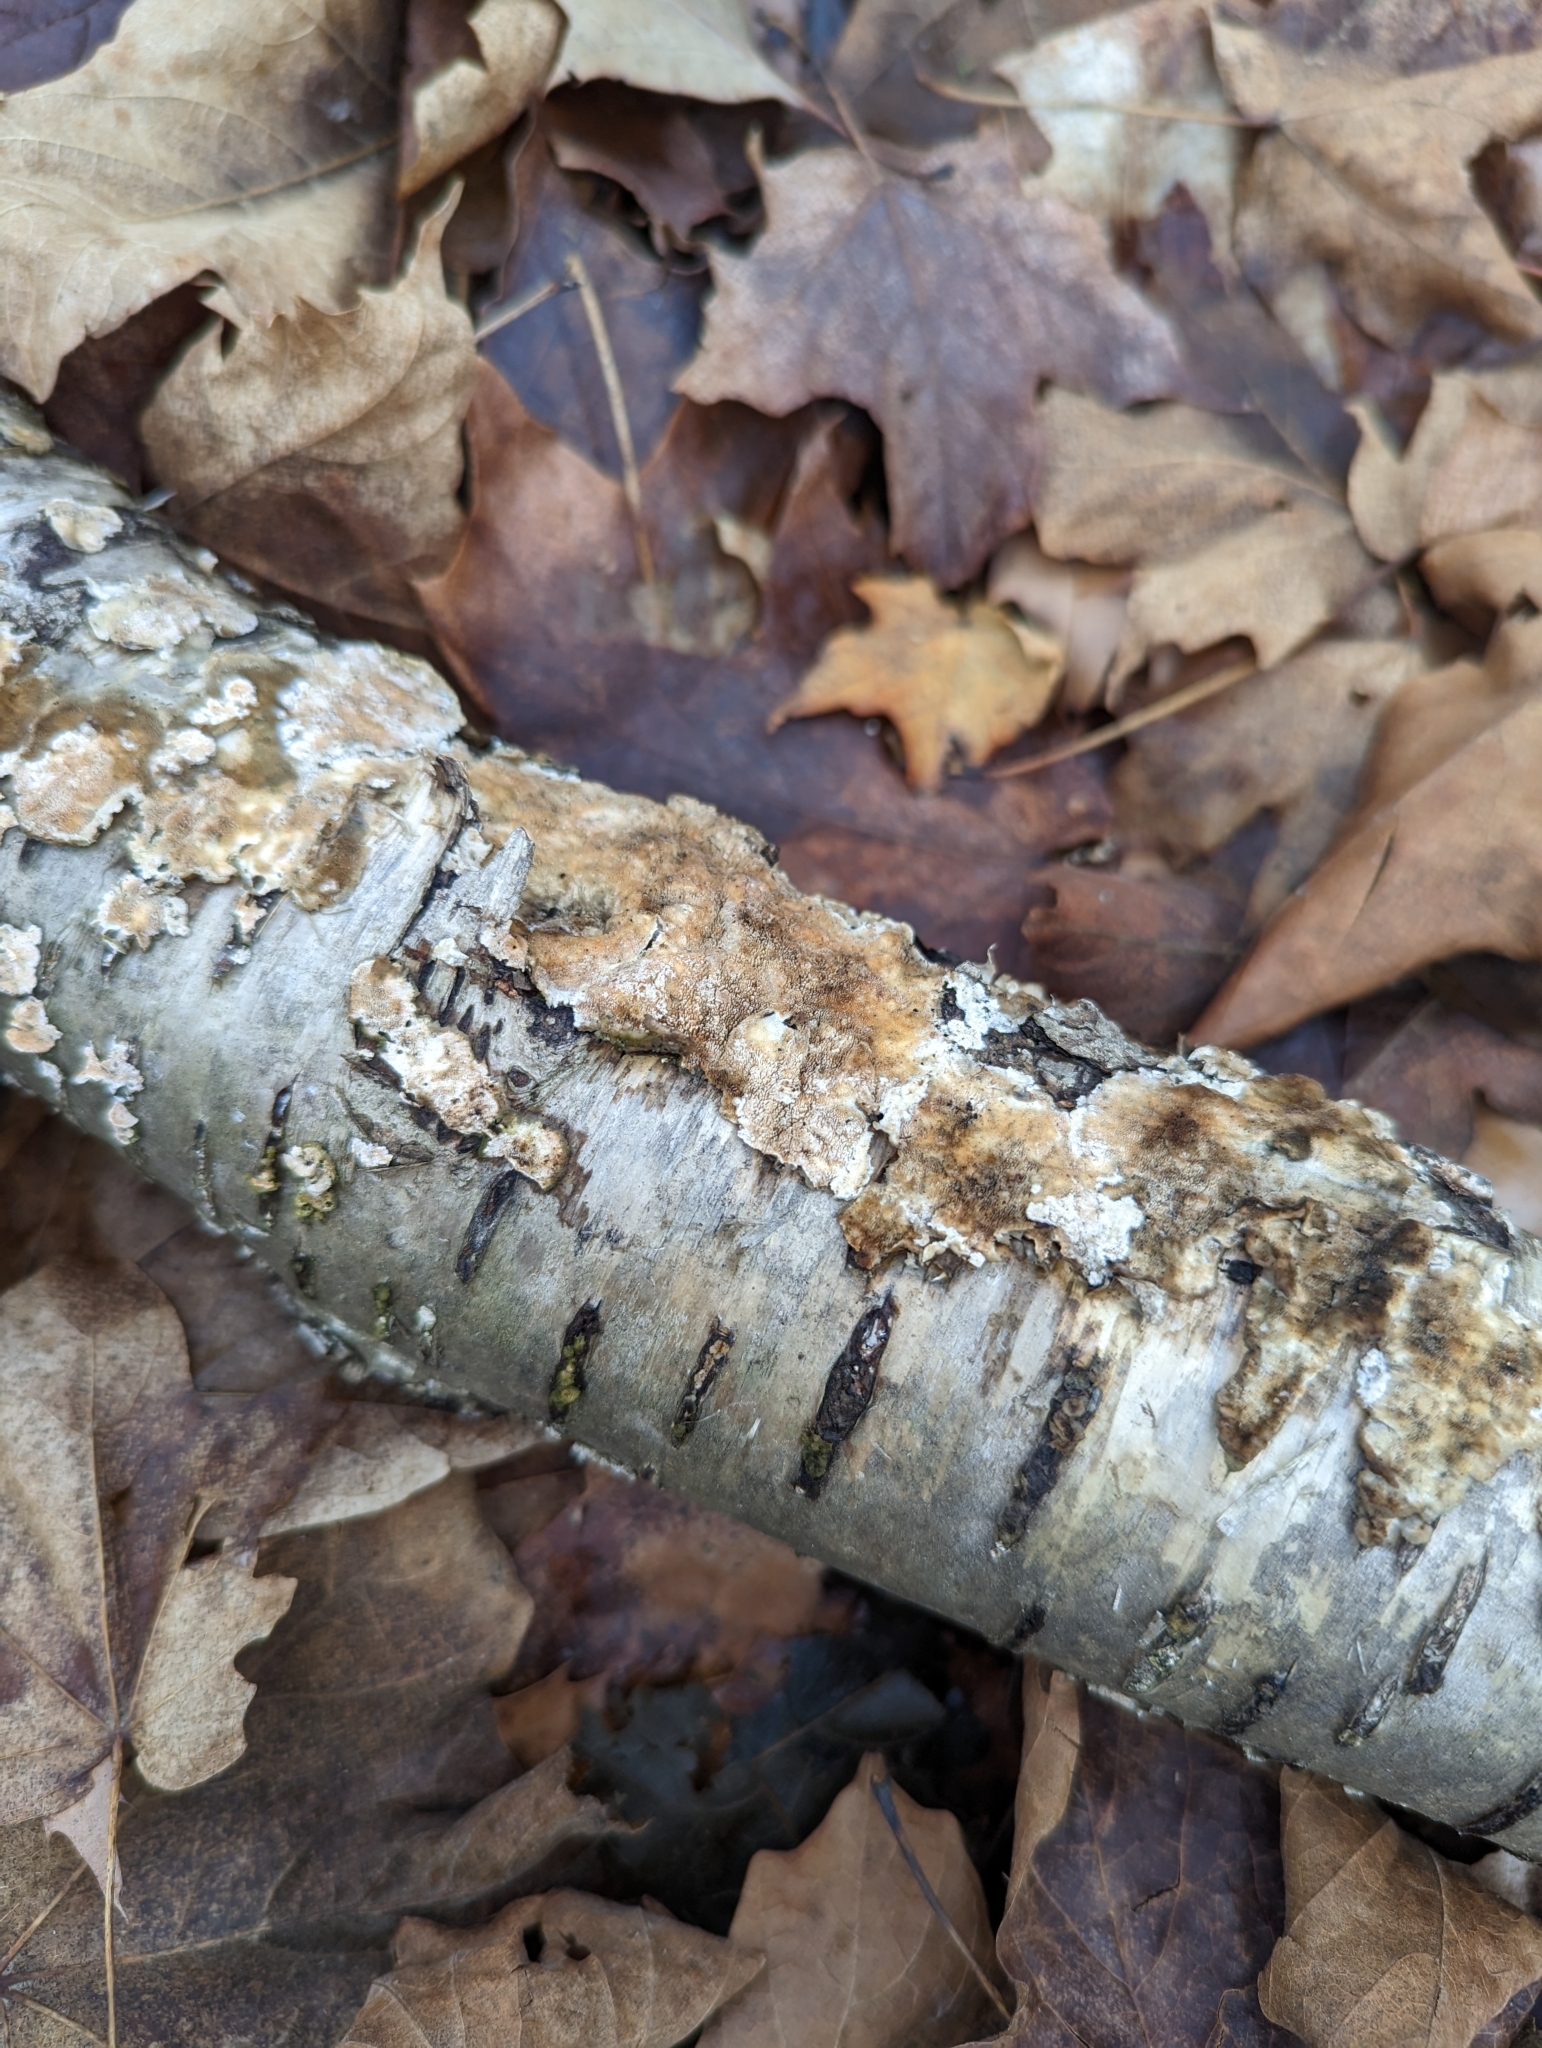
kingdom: Fungi
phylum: Basidiomycota
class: Agaricomycetes
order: Hymenochaetales
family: Hymenochaetaceae
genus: Hydnoporia
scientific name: Hydnoporia olivacea
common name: Brown-toothed crust fungus
